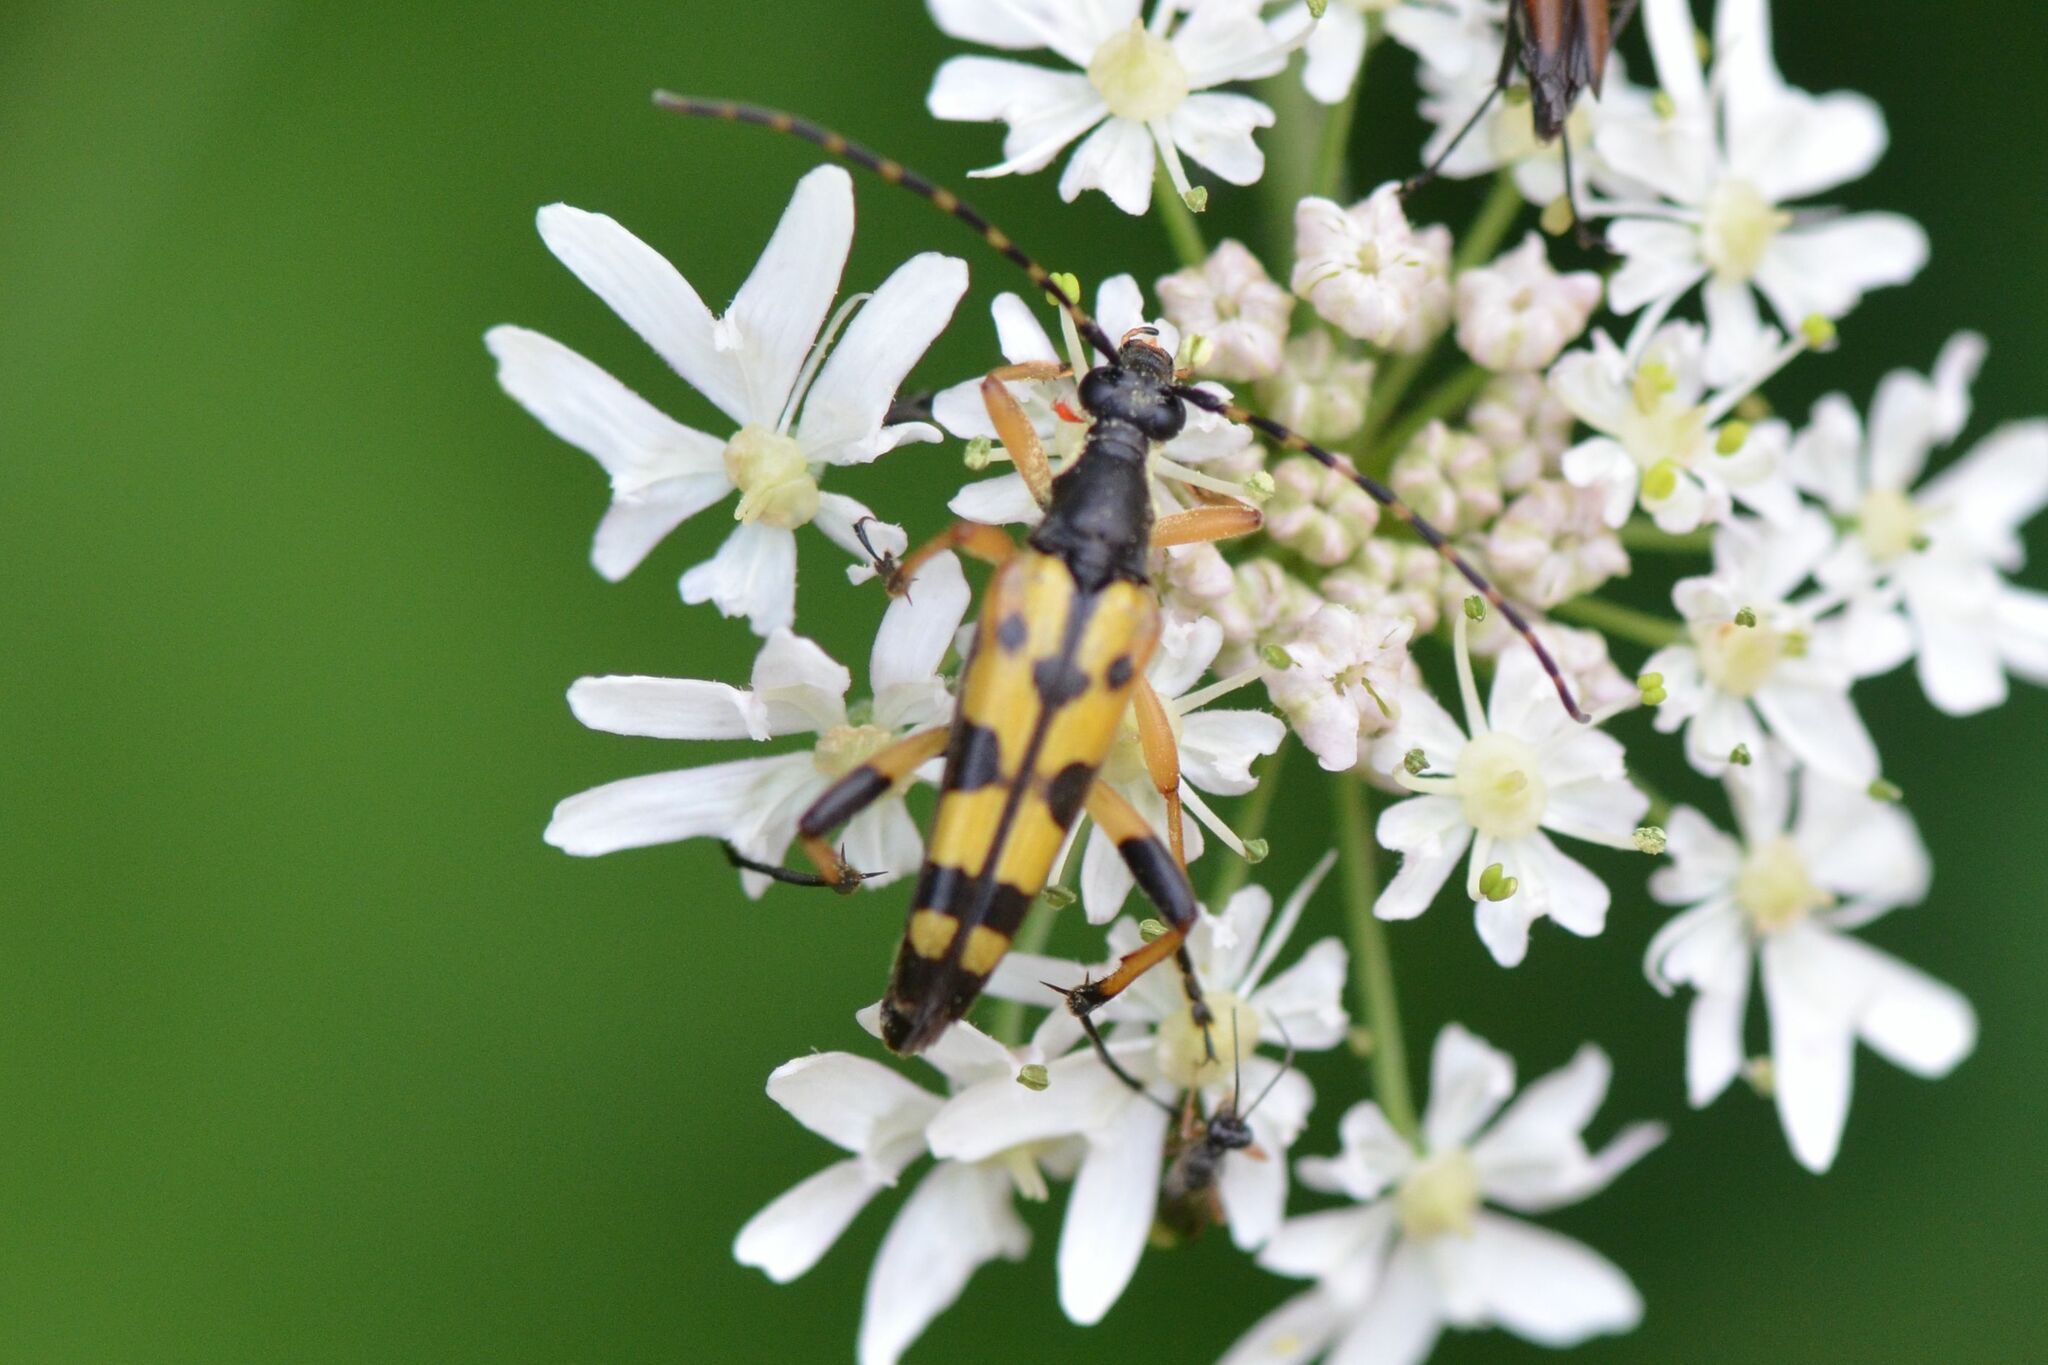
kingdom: Animalia
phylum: Arthropoda
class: Insecta
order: Coleoptera
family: Cerambycidae
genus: Rutpela
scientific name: Rutpela maculata
